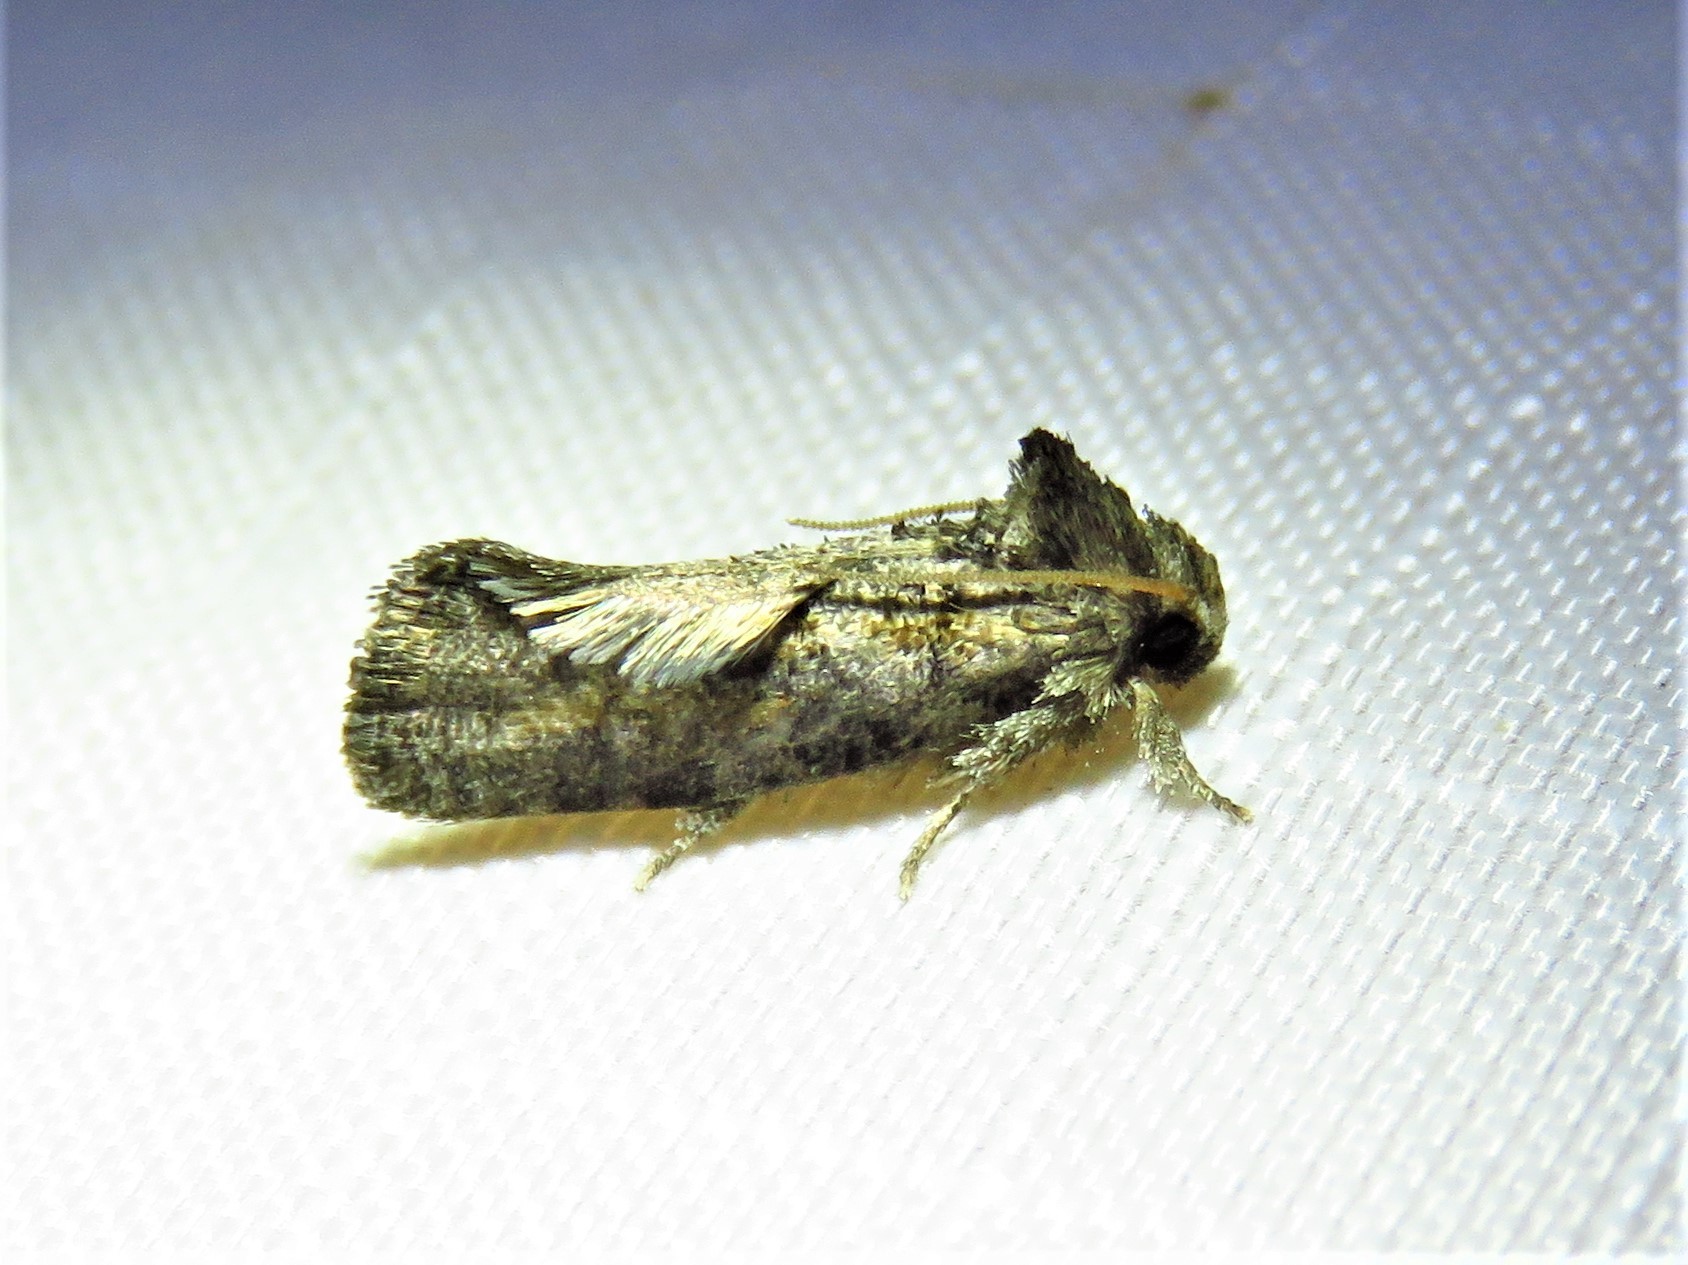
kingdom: Animalia
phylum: Arthropoda
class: Insecta
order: Lepidoptera
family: Tineidae
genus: Acrolophus
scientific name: Acrolophus piger
